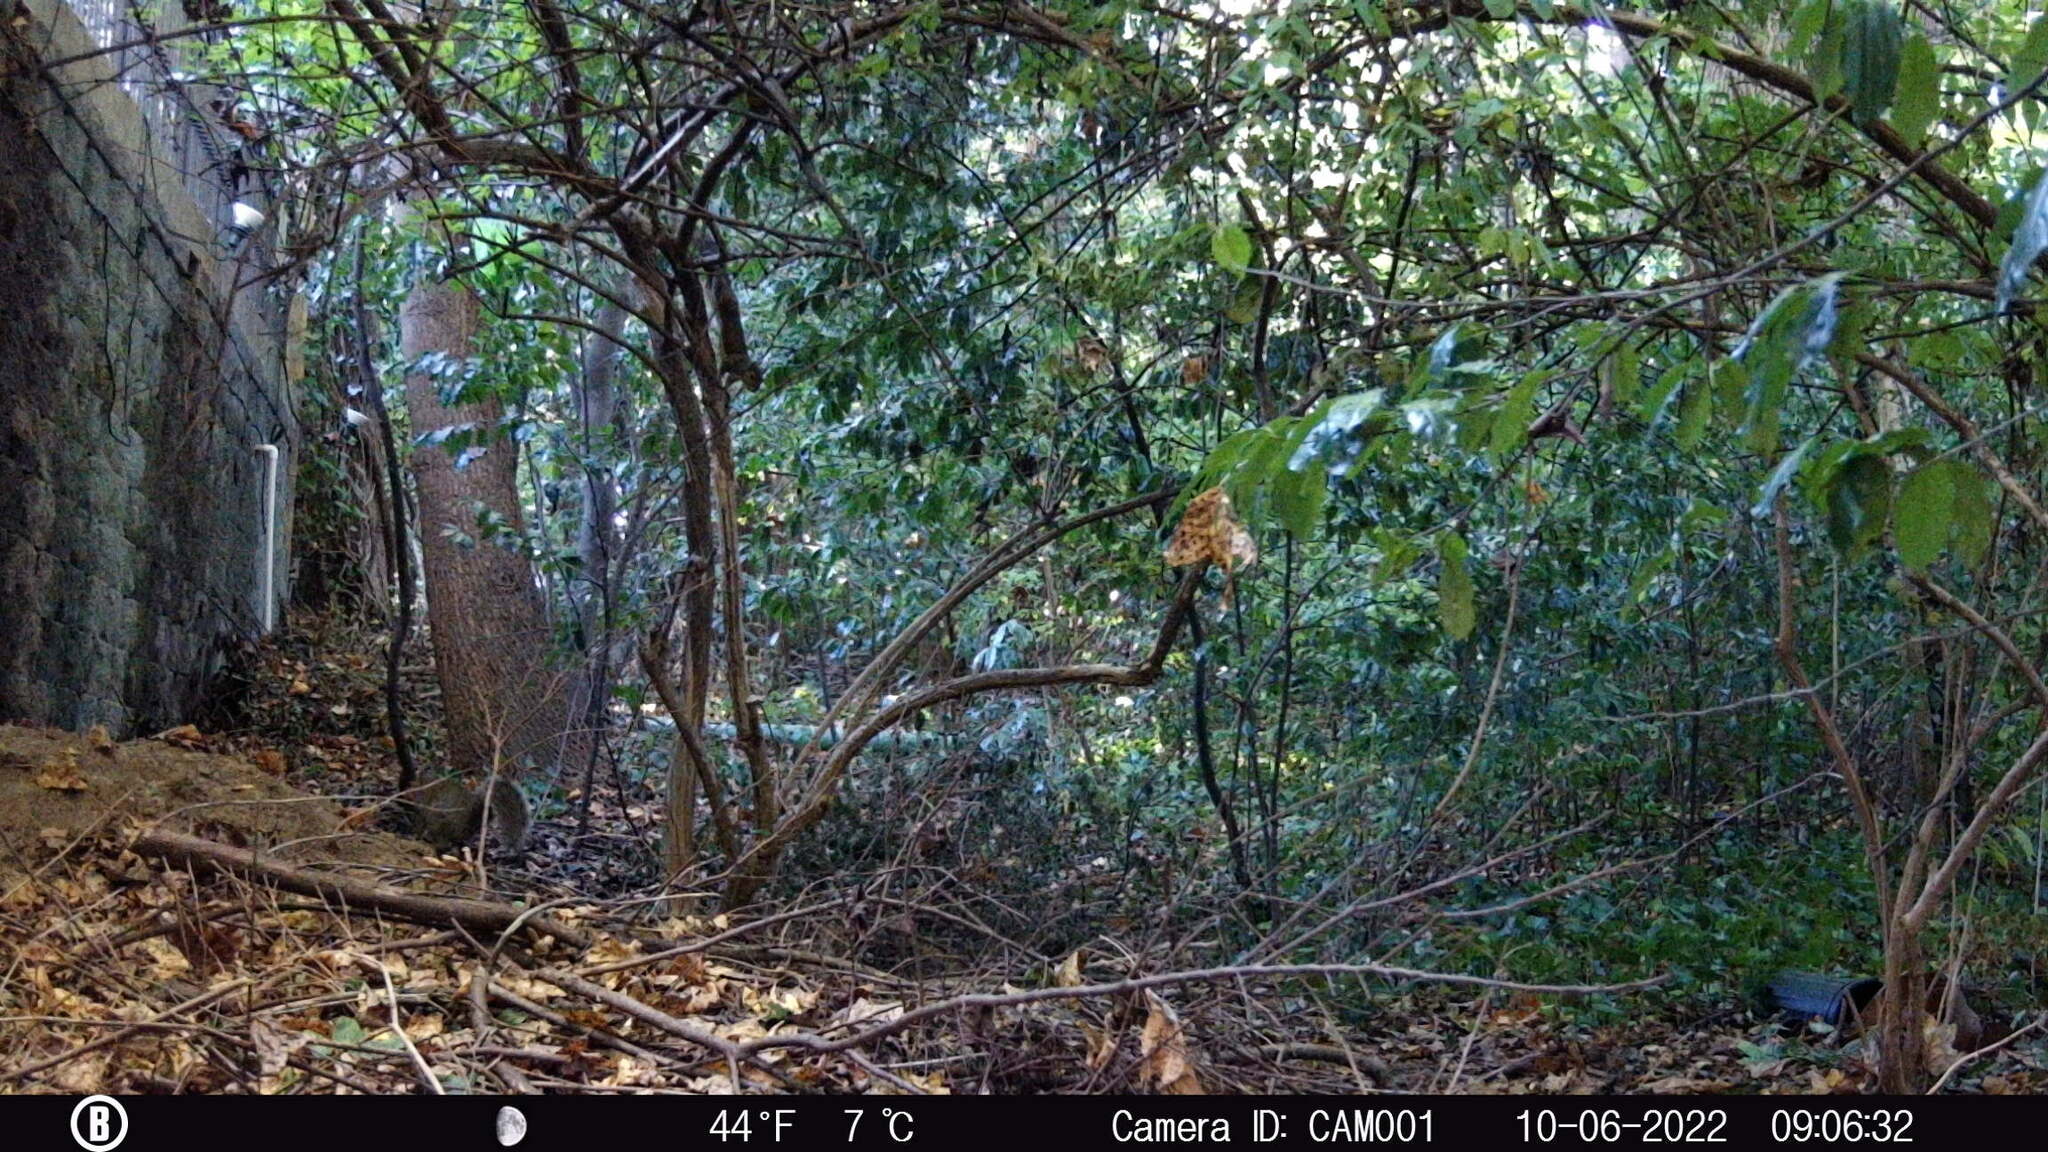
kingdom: Animalia
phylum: Chordata
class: Mammalia
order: Rodentia
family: Sciuridae
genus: Sciurus
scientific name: Sciurus carolinensis
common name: Eastern gray squirrel
